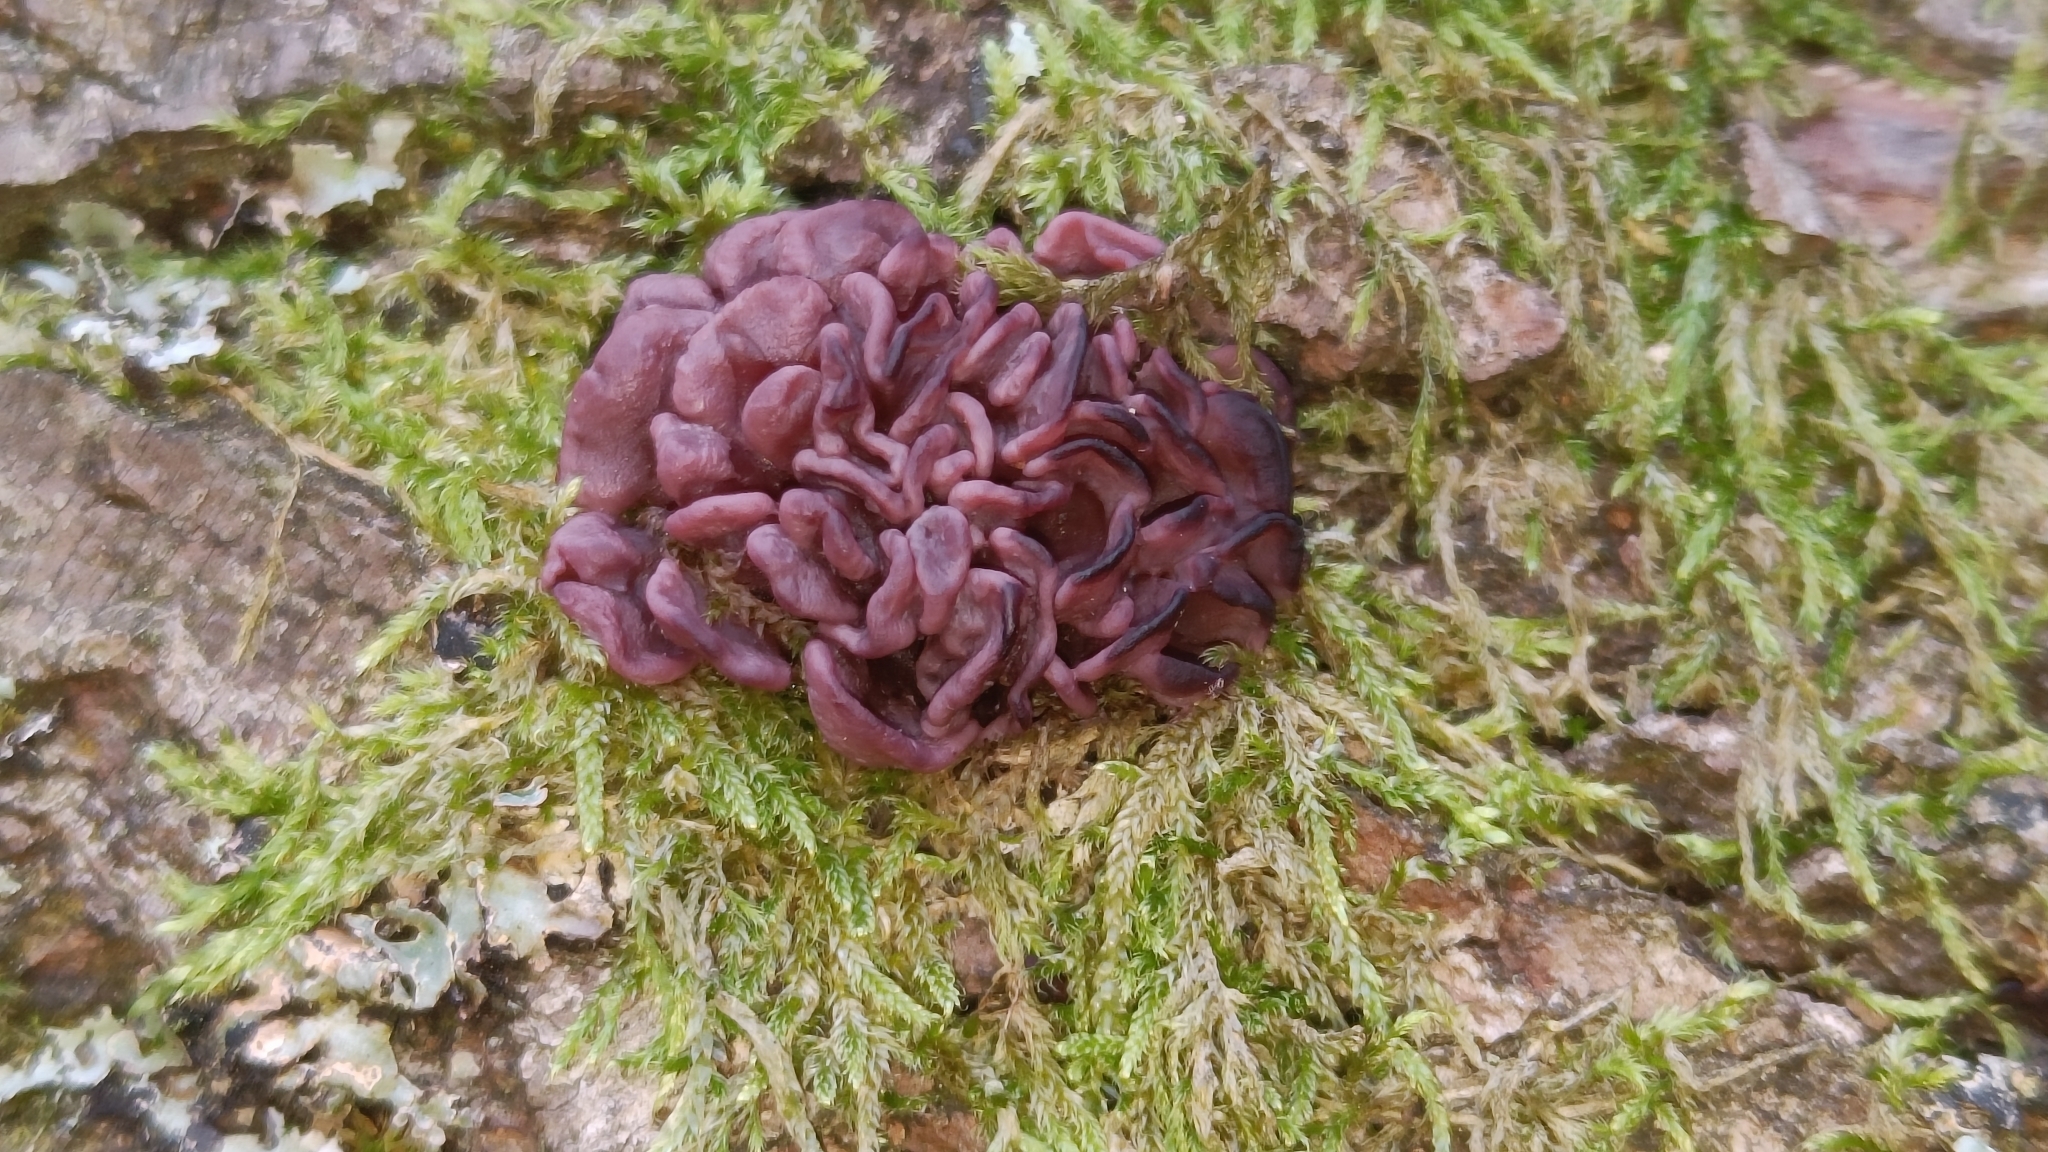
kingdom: Fungi
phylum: Ascomycota
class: Leotiomycetes
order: Helotiales
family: Gelatinodiscaceae
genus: Ascocoryne
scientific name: Ascocoryne sarcoides
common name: Purple jellydisc
